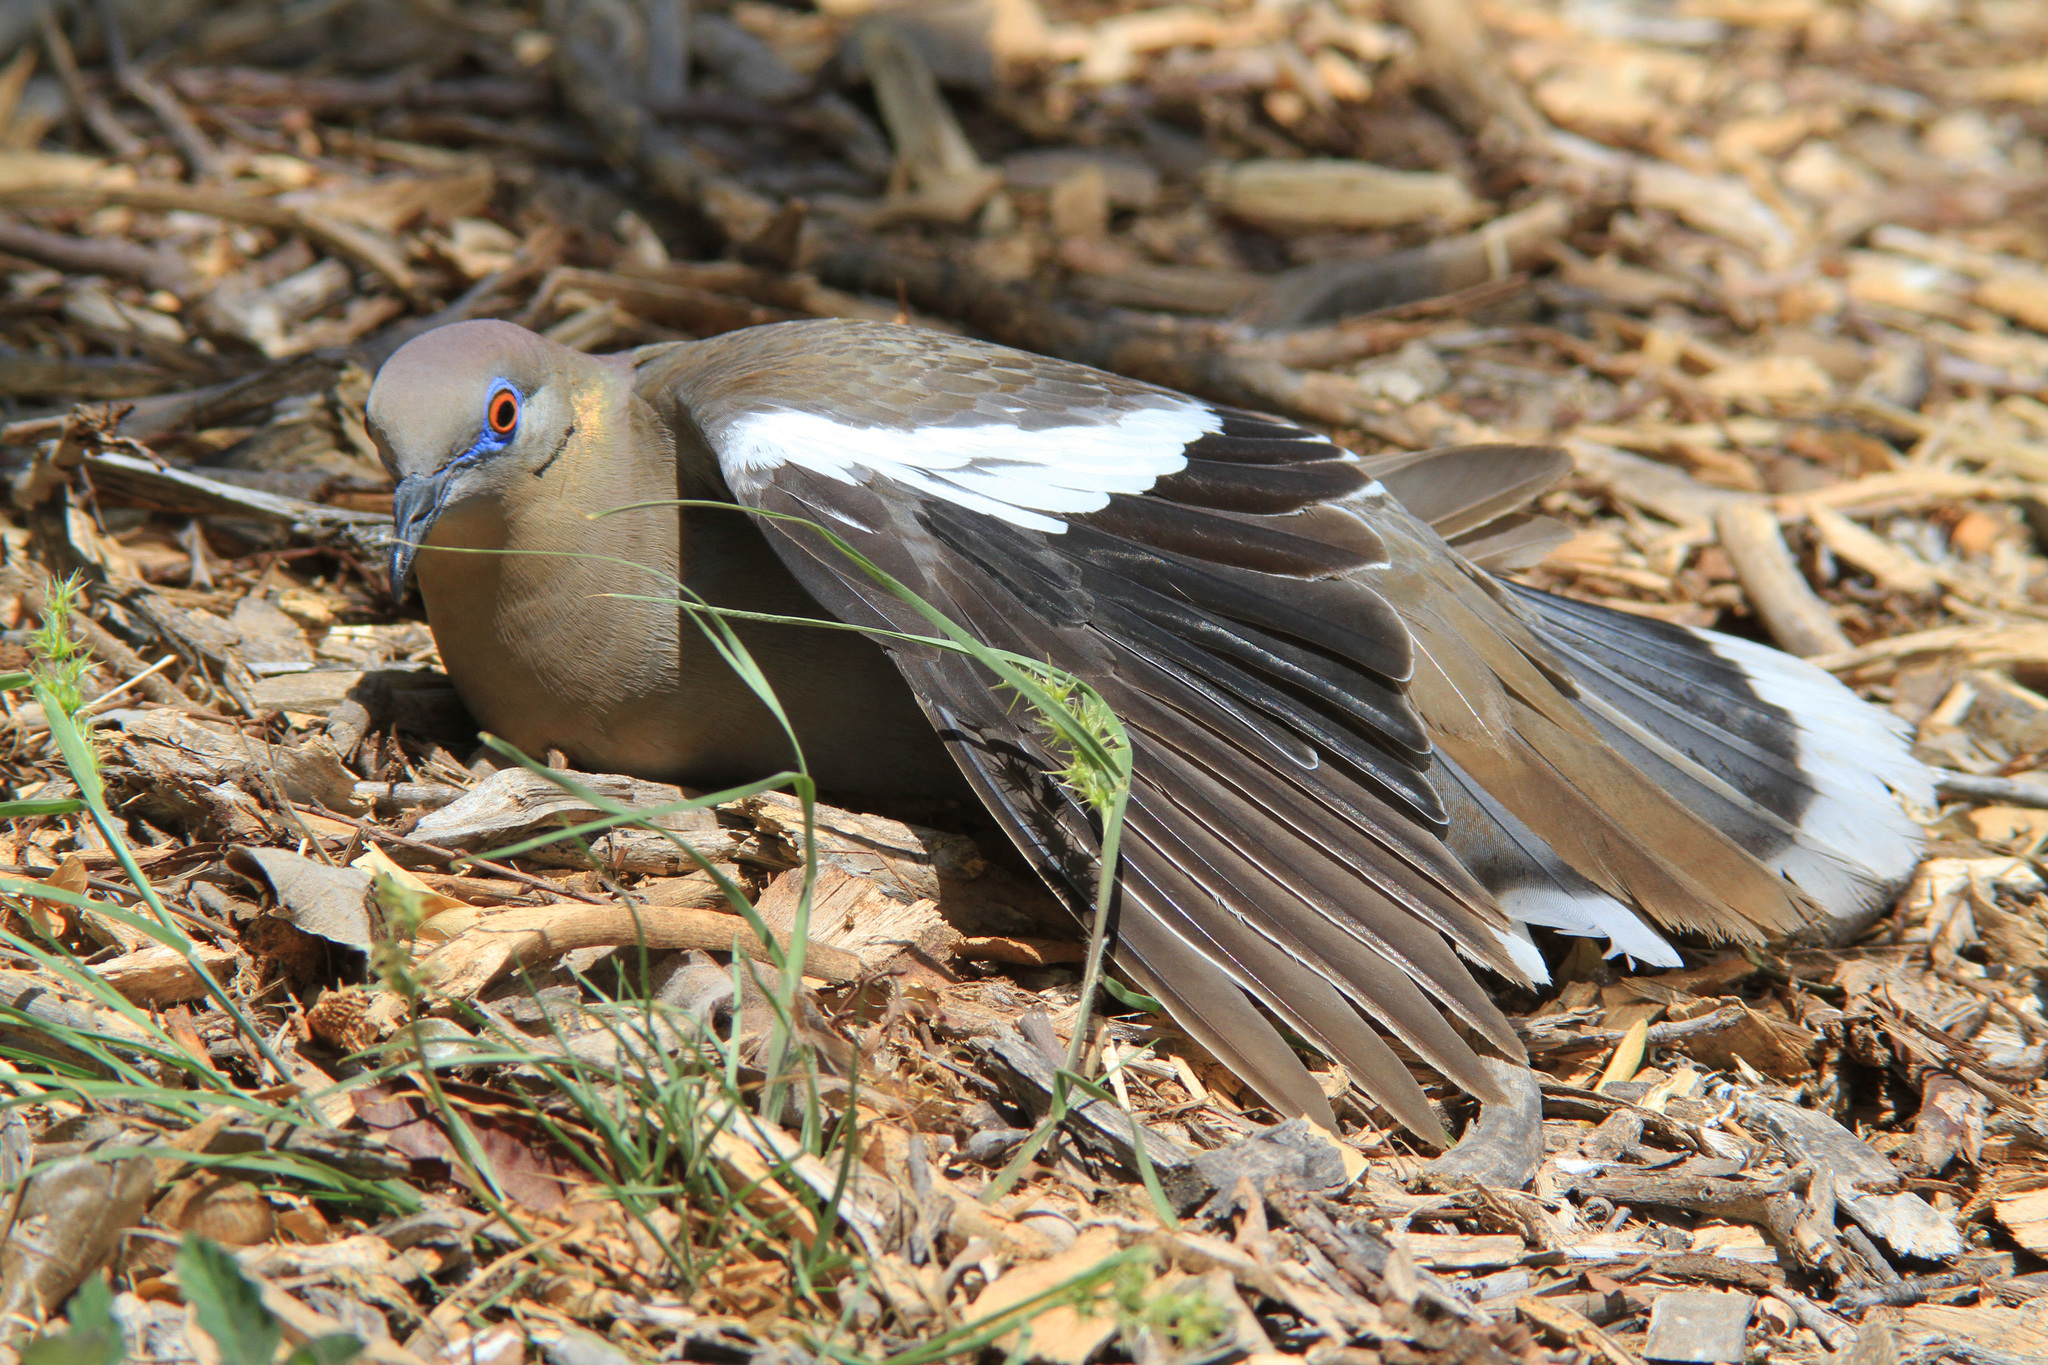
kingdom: Animalia
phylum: Chordata
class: Aves
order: Columbiformes
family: Columbidae
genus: Zenaida
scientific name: Zenaida asiatica
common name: White-winged dove
